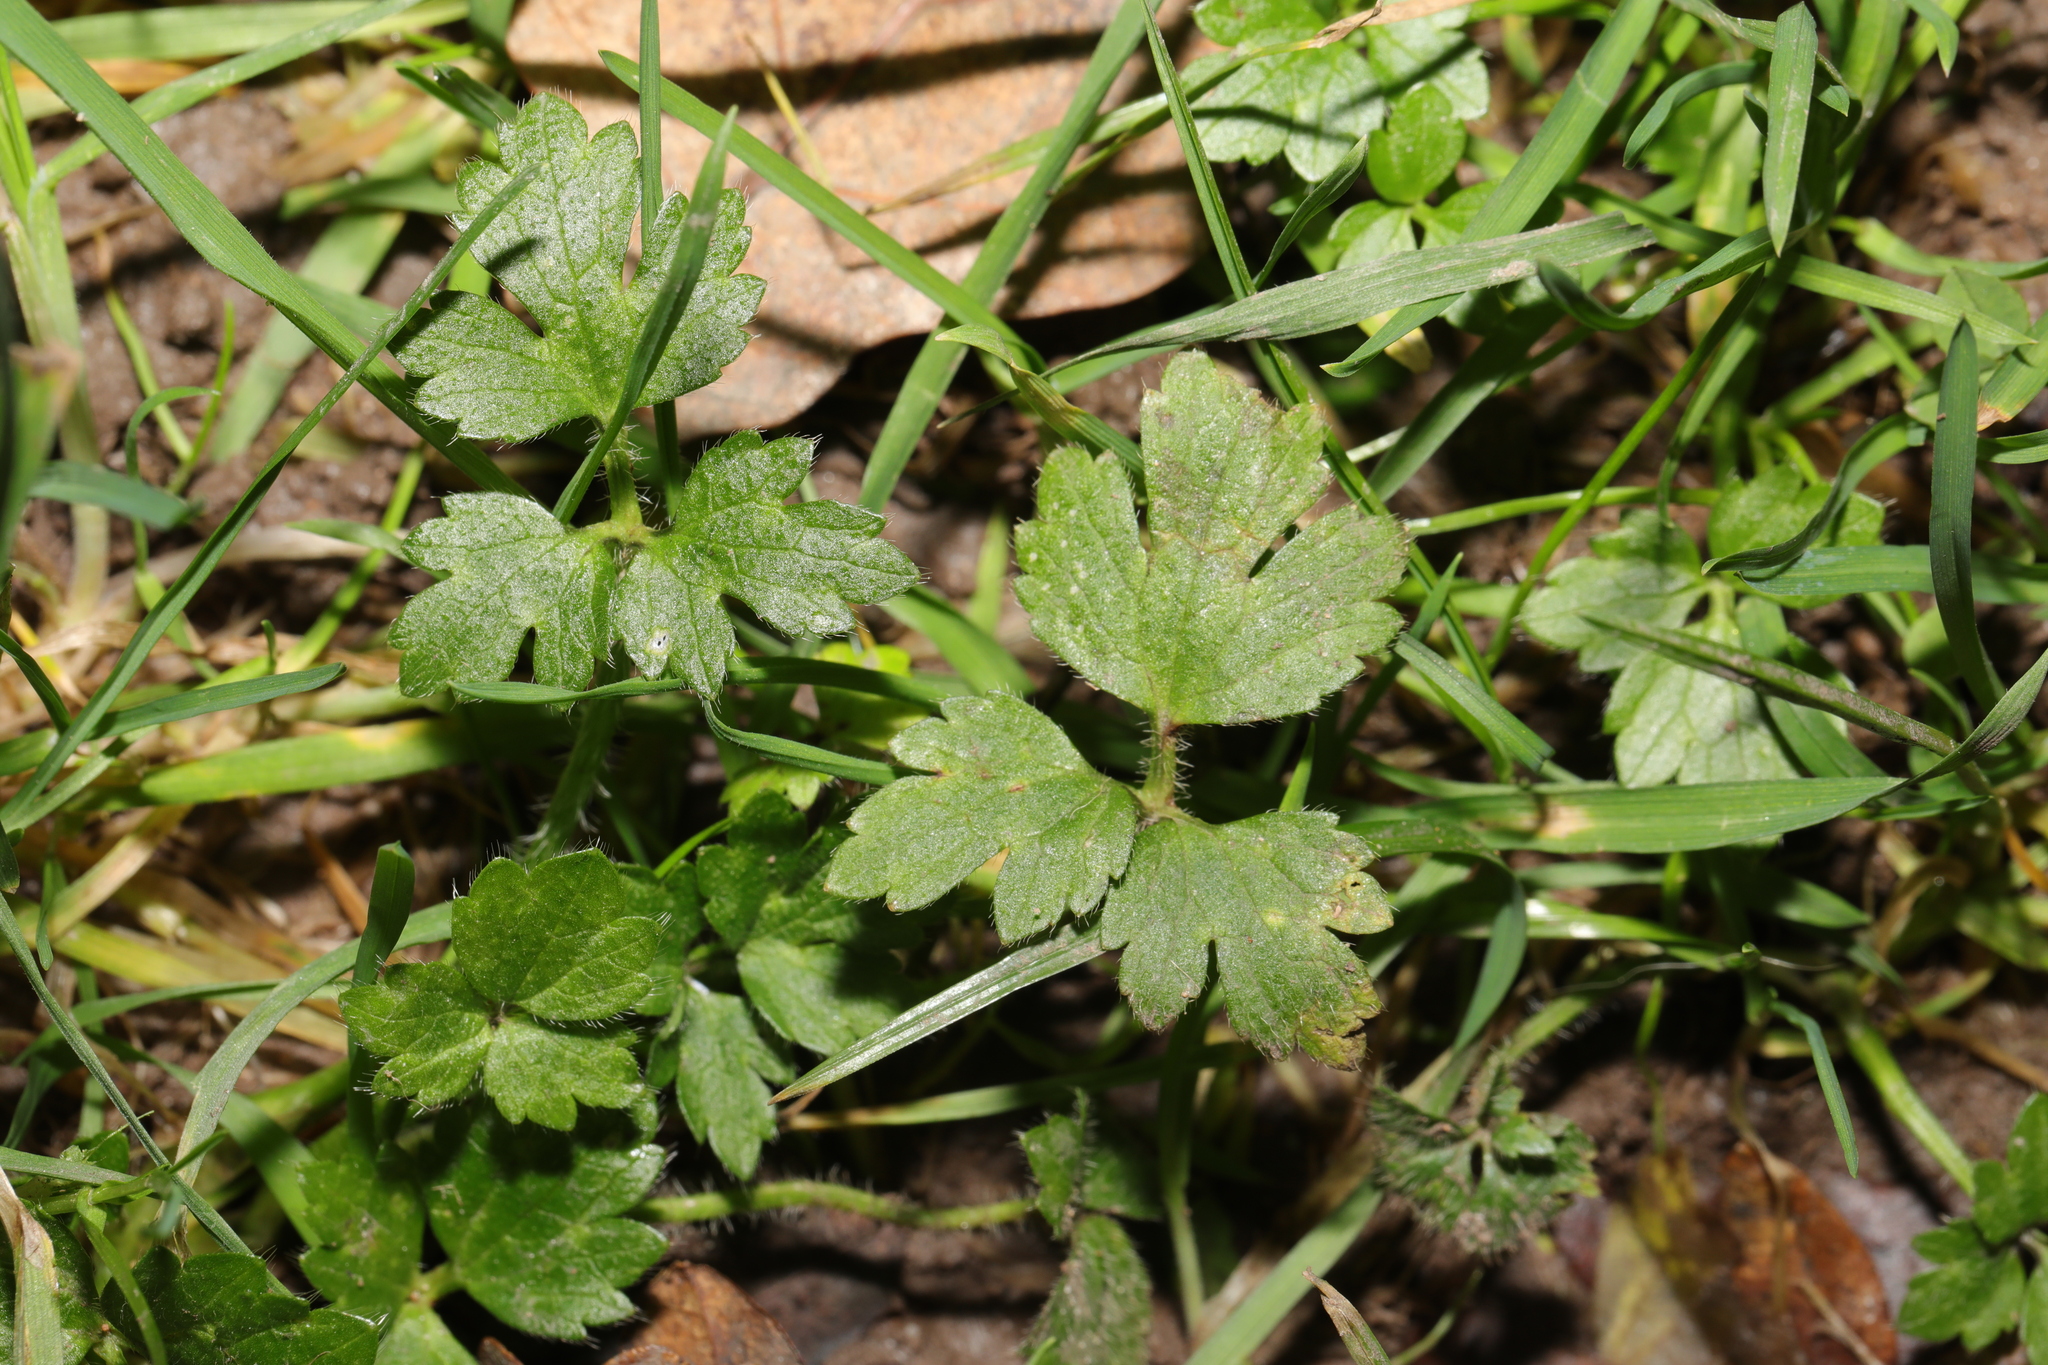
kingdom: Plantae
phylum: Tracheophyta
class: Magnoliopsida
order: Ranunculales
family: Ranunculaceae
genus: Ranunculus
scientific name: Ranunculus repens
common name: Creeping buttercup
